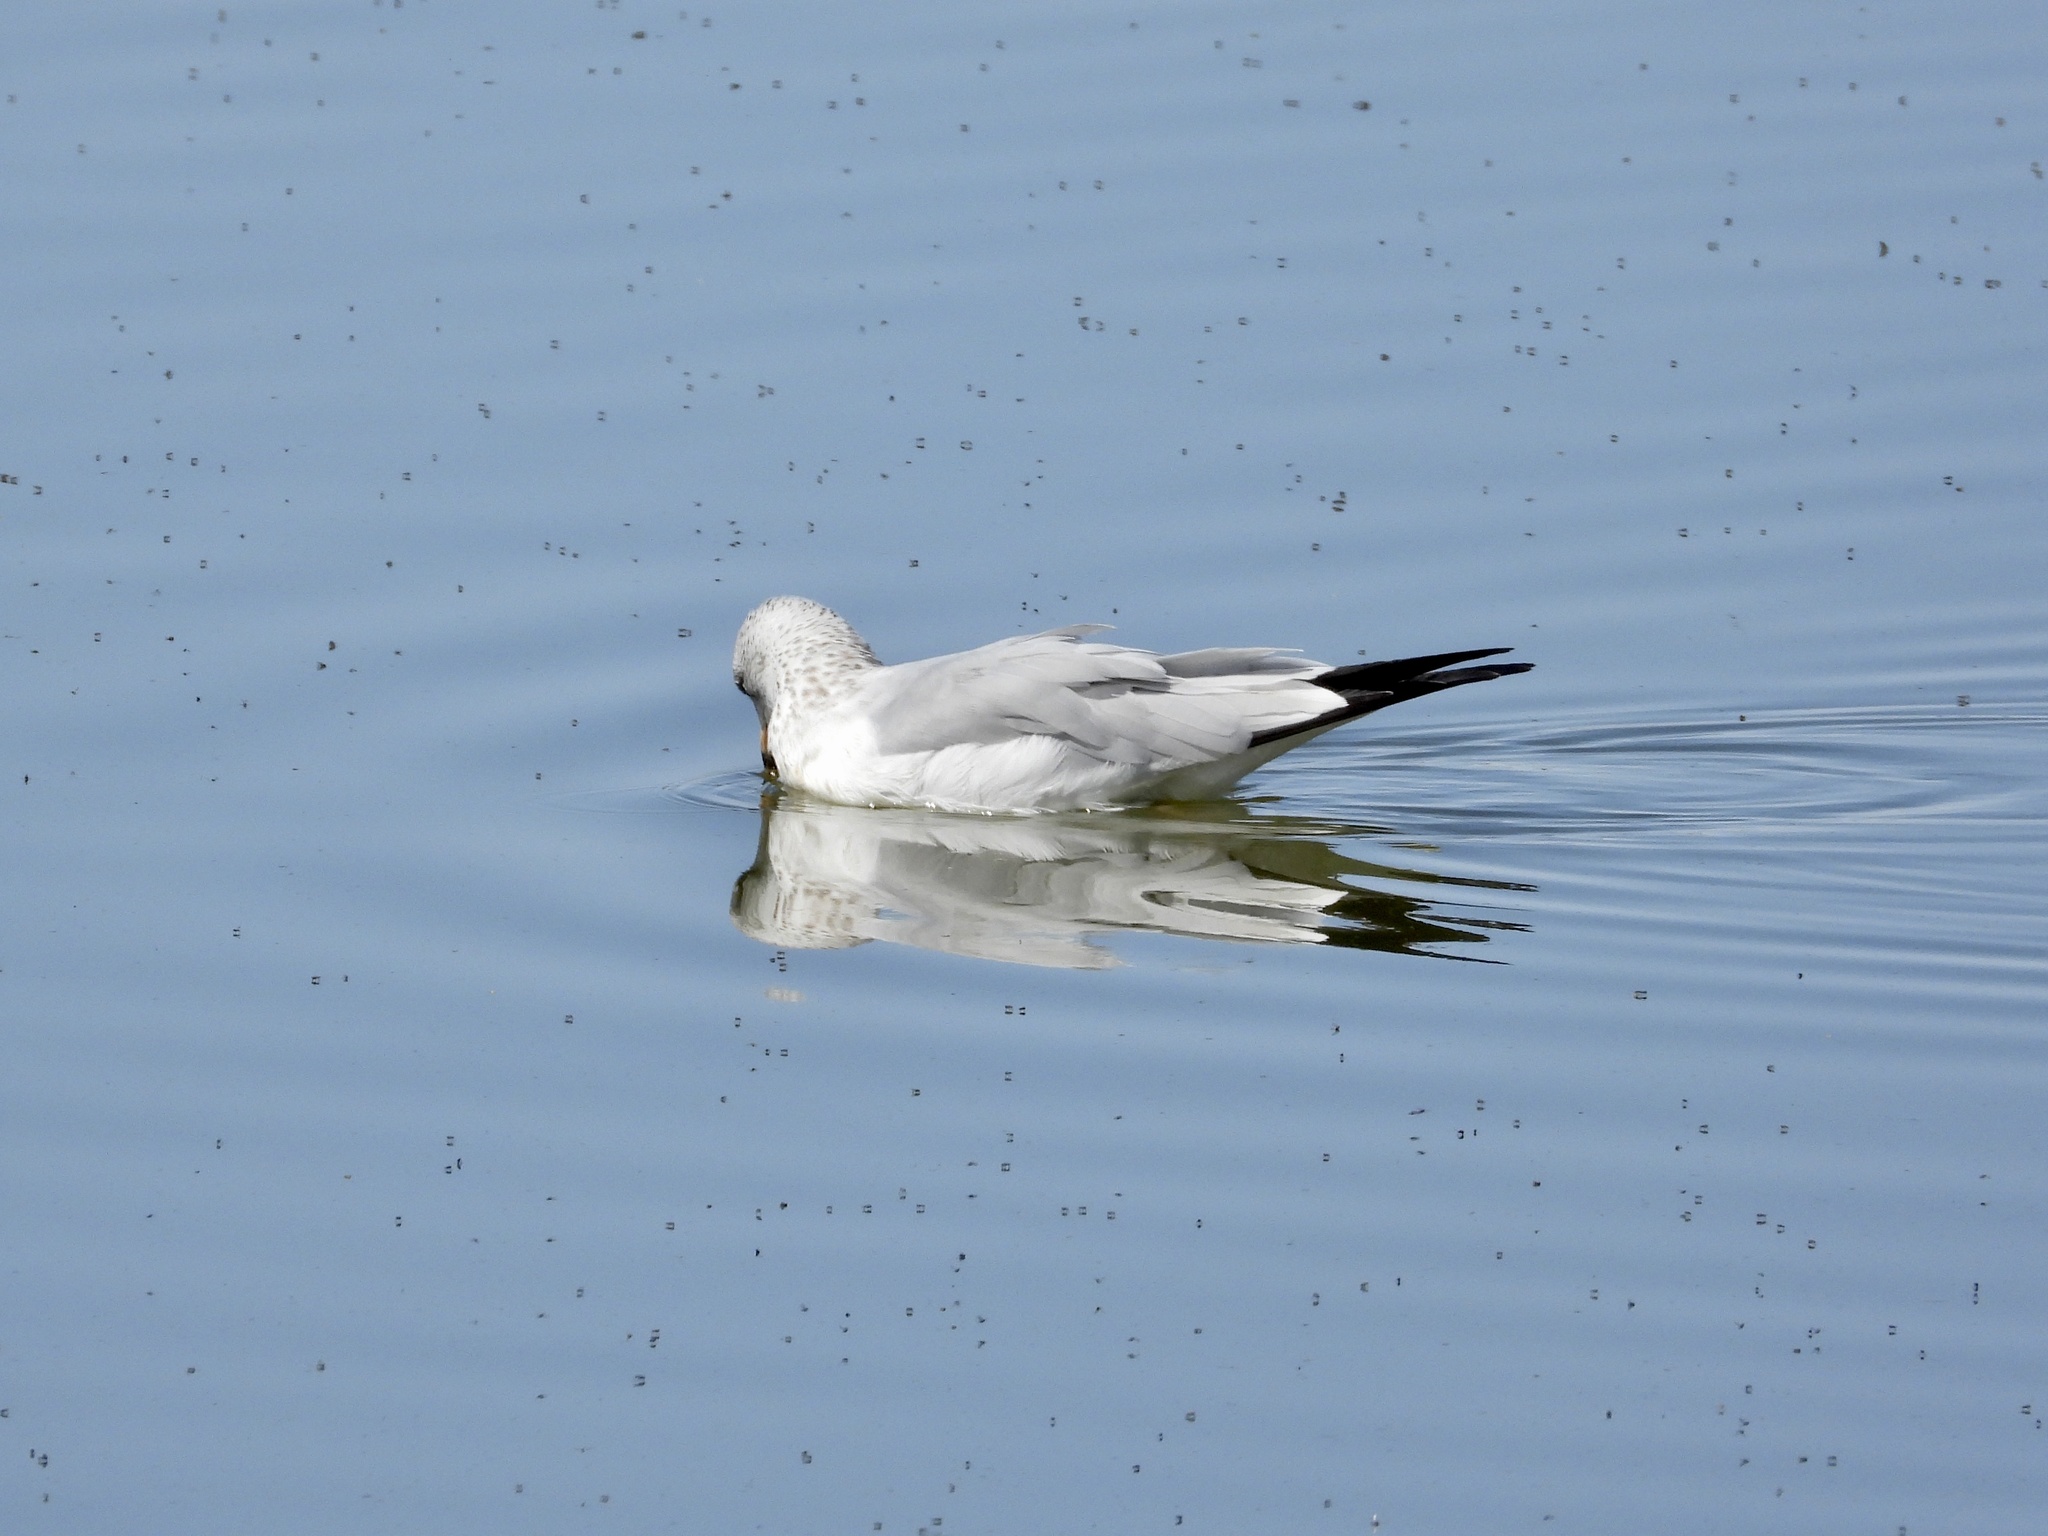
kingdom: Animalia
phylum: Chordata
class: Aves
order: Charadriiformes
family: Laridae
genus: Larus
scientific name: Larus delawarensis
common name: Ring-billed gull
